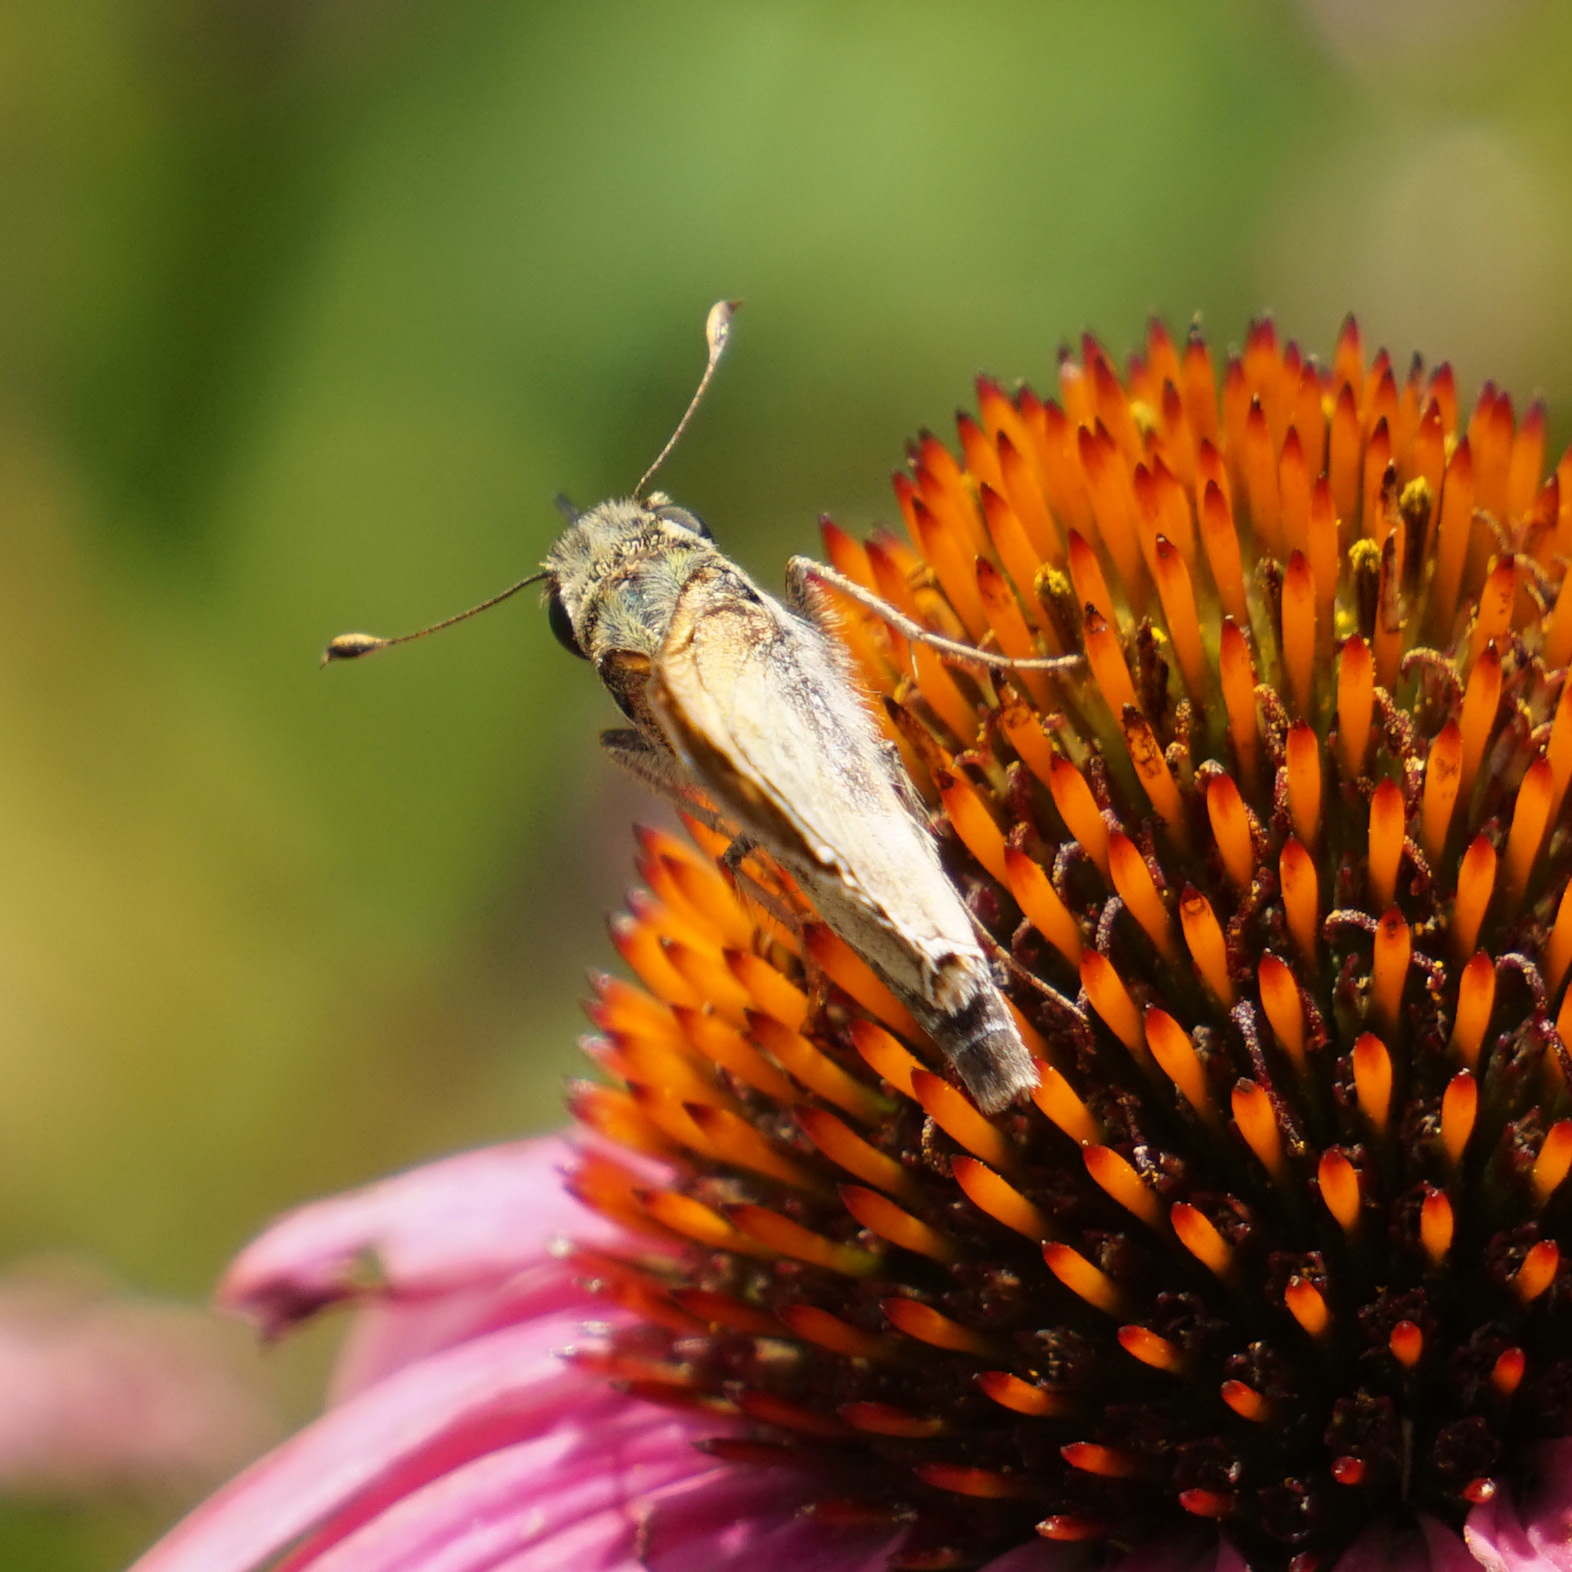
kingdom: Animalia
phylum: Arthropoda
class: Insecta
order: Lepidoptera
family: Hesperiidae
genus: Atalopedes
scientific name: Atalopedes
